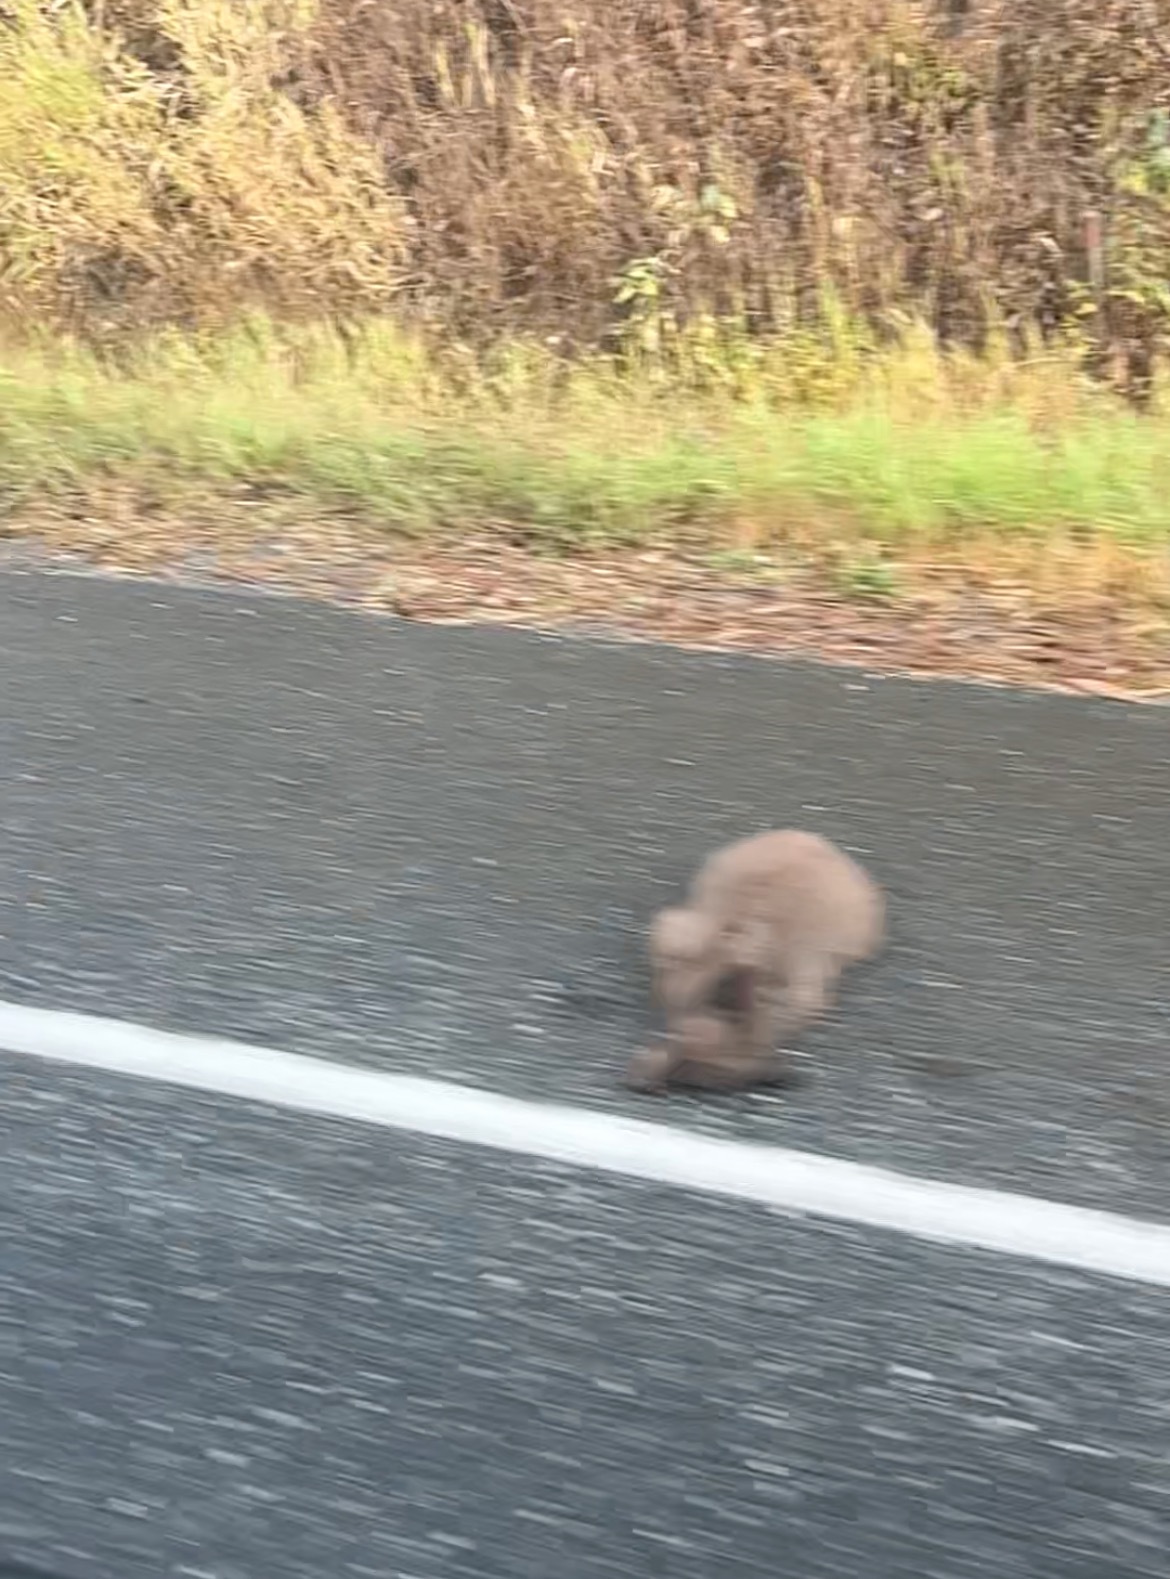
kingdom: Animalia
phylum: Chordata
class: Mammalia
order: Carnivora
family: Ursidae
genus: Ursus
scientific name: Ursus americanus
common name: American black bear
